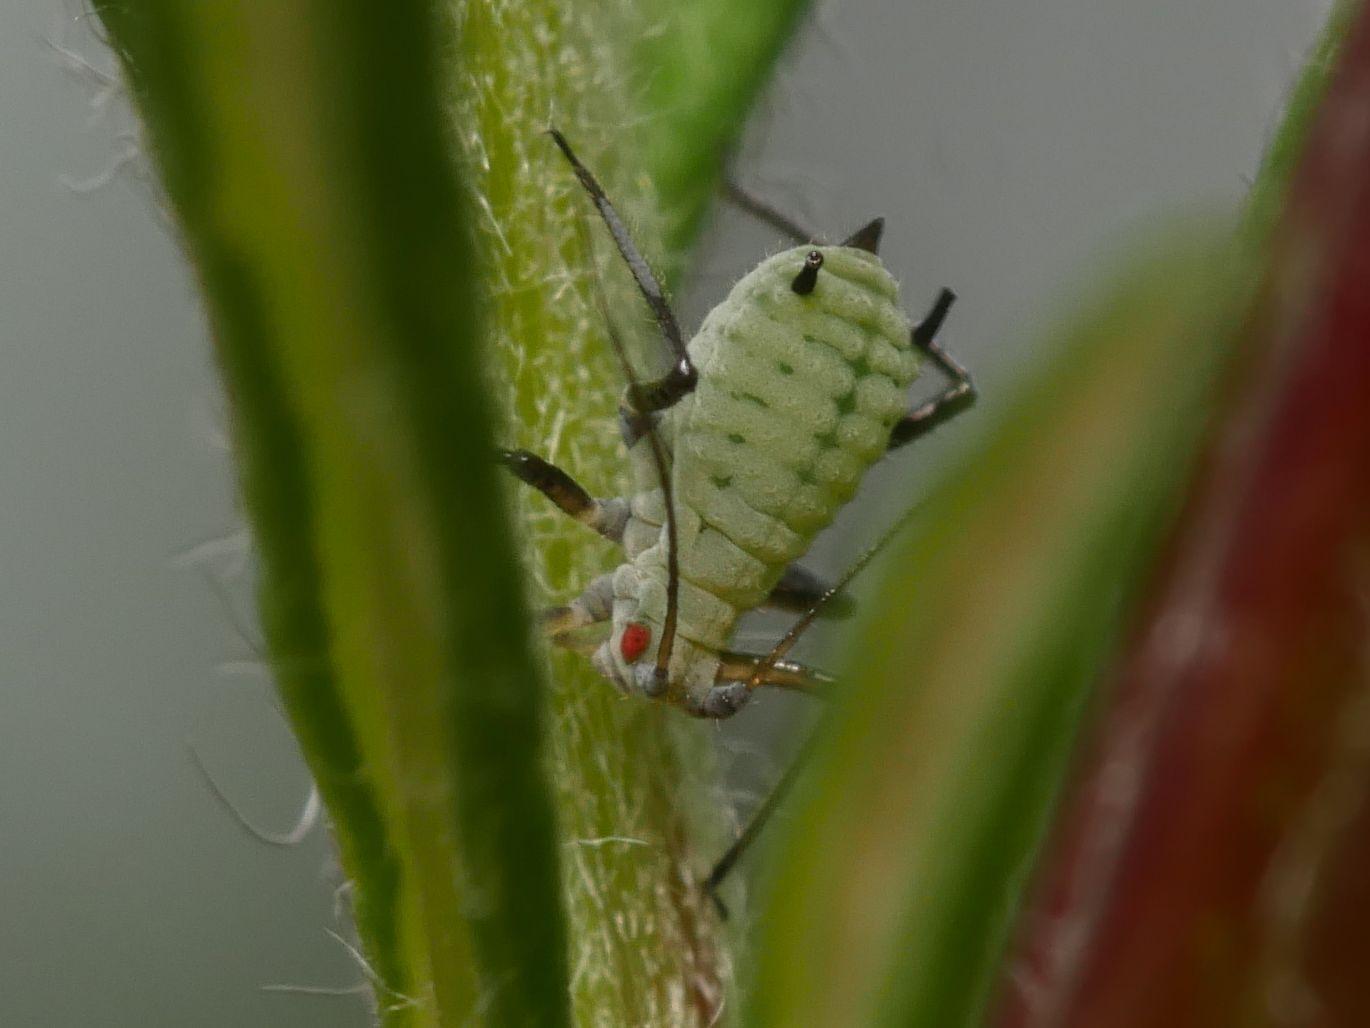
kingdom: Animalia
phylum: Arthropoda
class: Insecta
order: Hemiptera
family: Aphididae
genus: Macrosiphoniella
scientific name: Macrosiphoniella artemisiae
